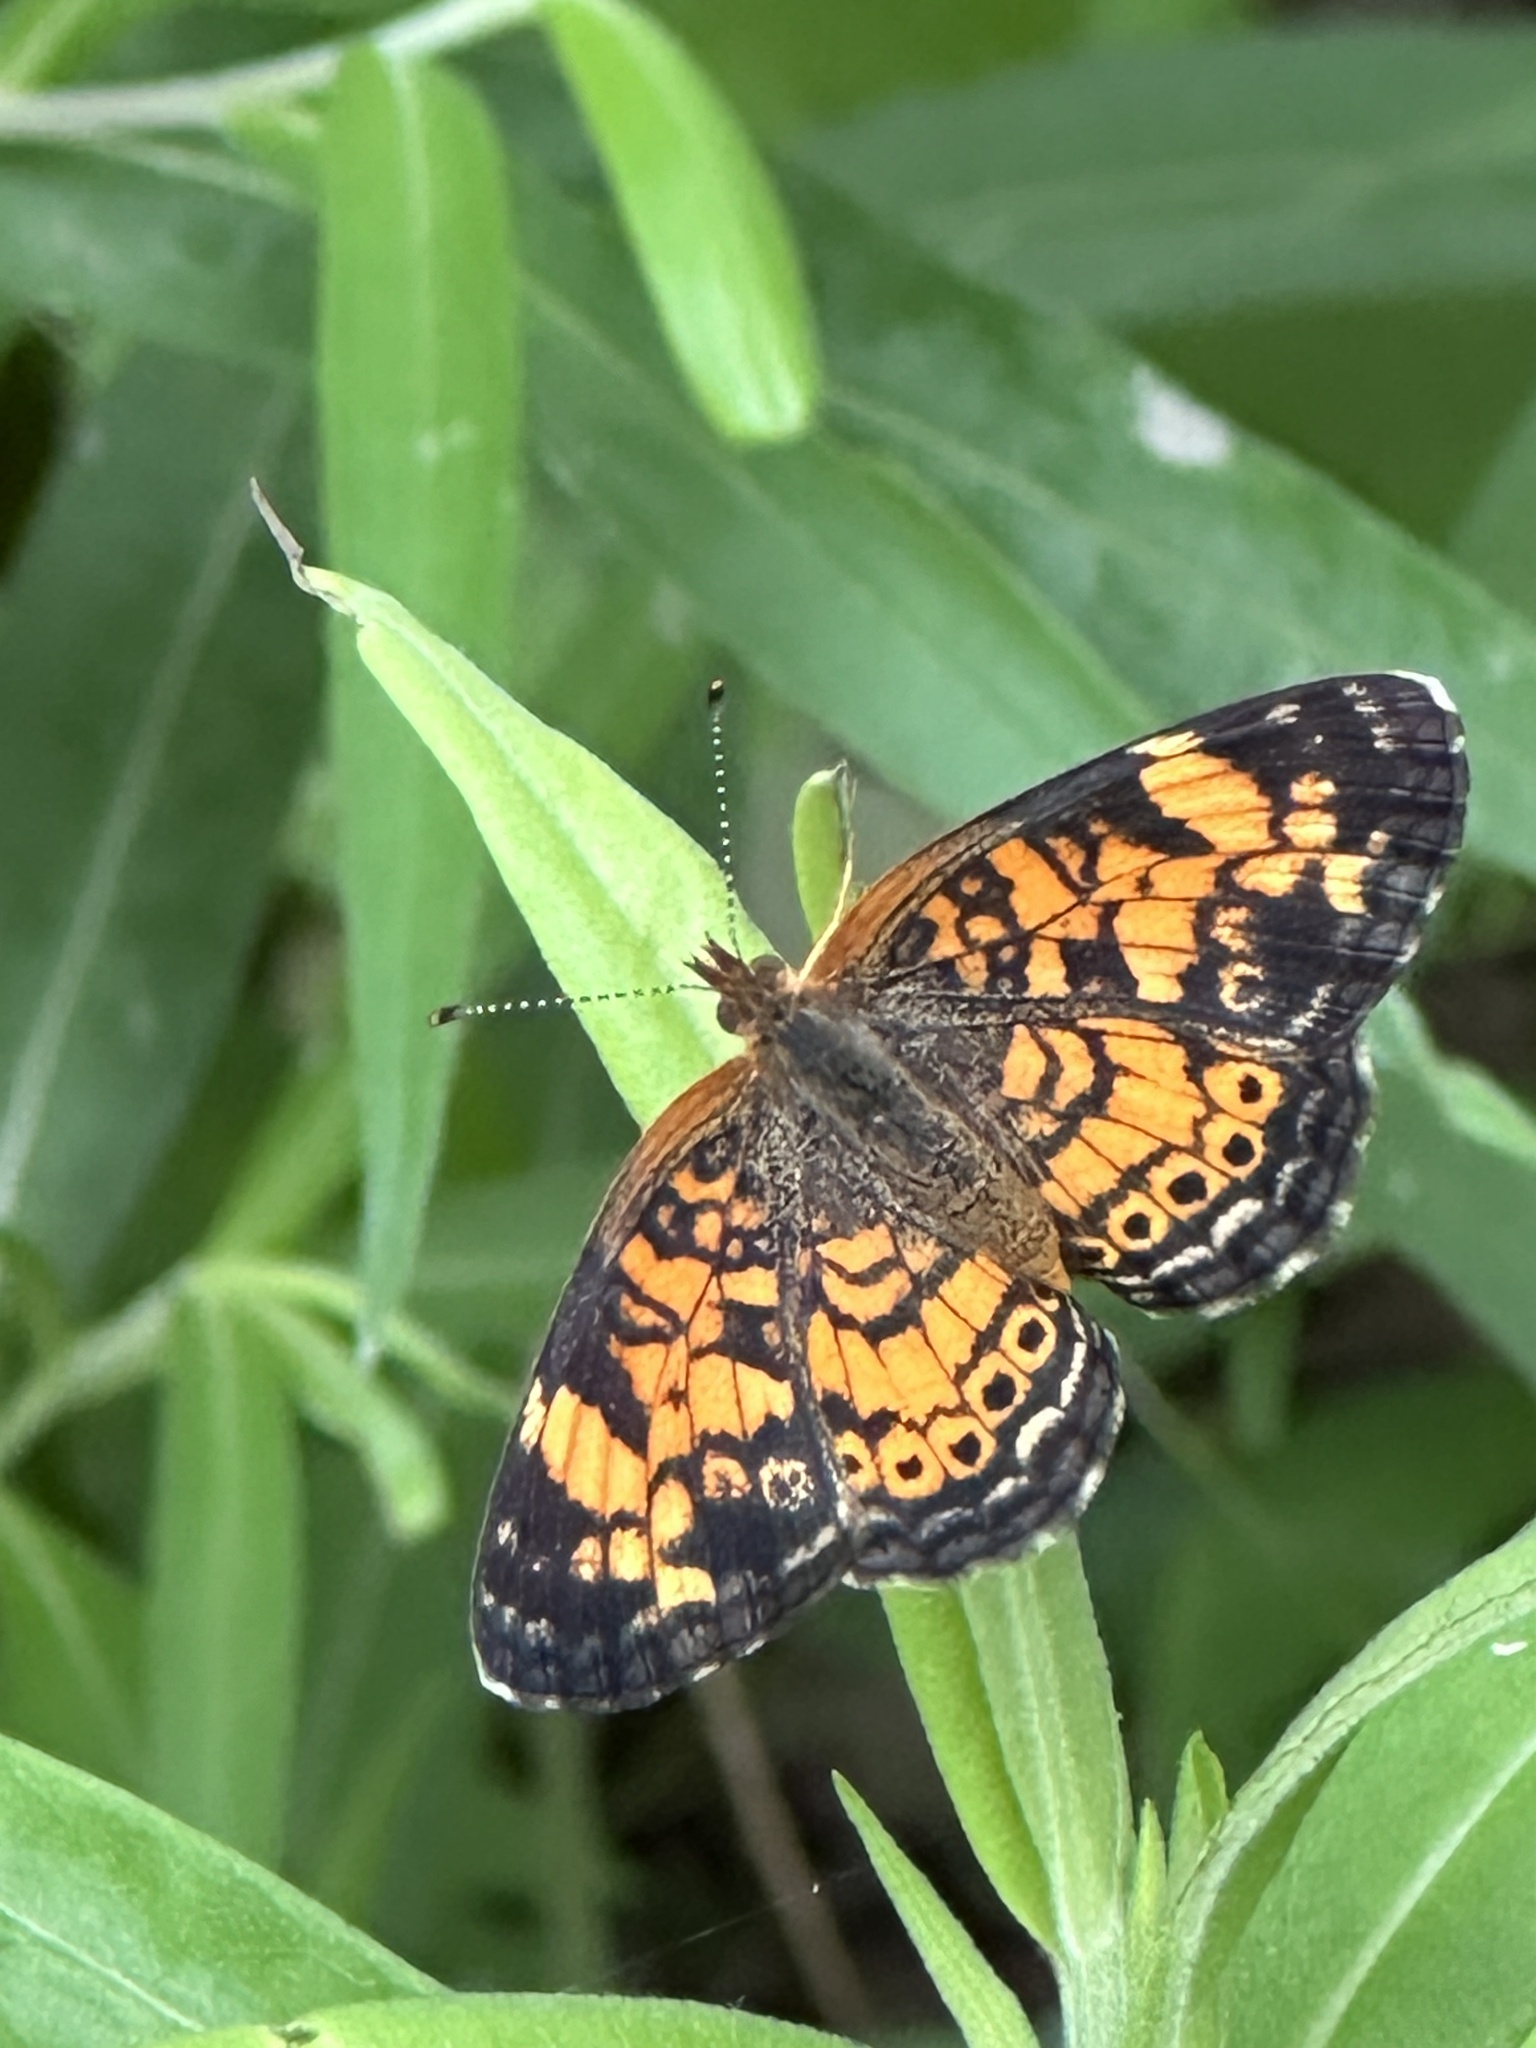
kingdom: Animalia
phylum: Arthropoda
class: Insecta
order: Lepidoptera
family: Nymphalidae
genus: Phyciodes
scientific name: Phyciodes tharos
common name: Pearl crescent
